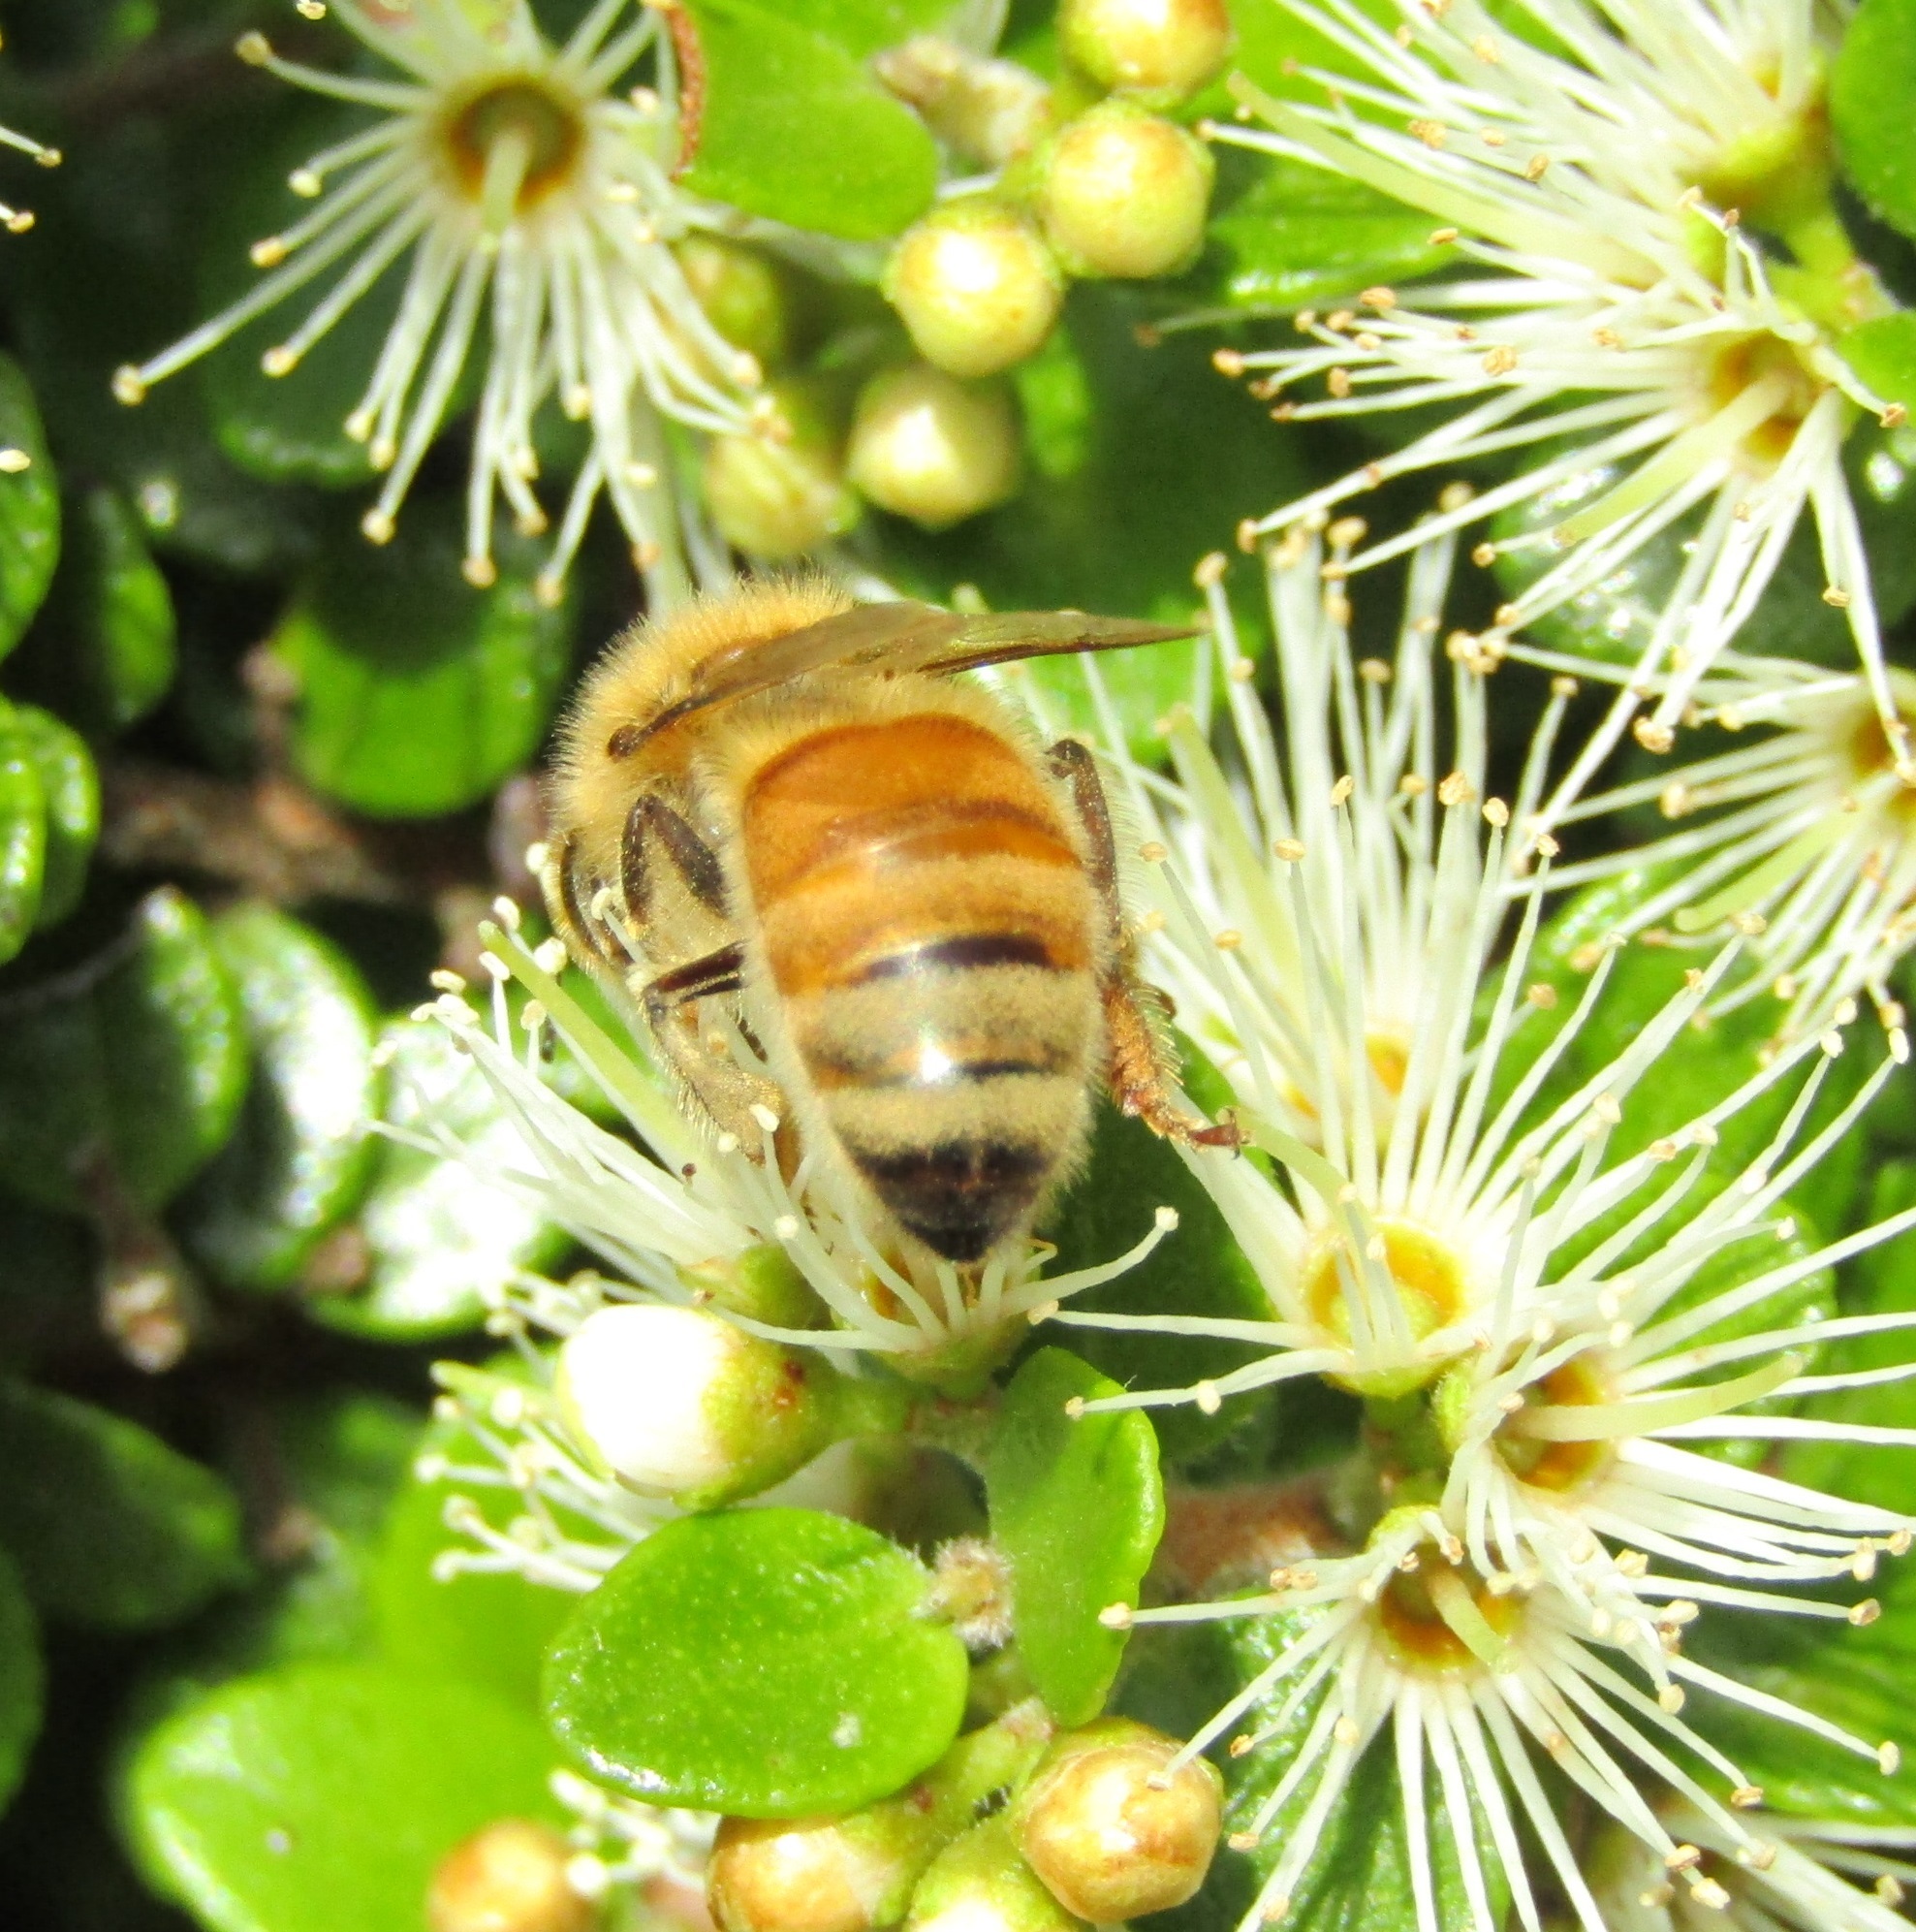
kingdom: Animalia
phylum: Arthropoda
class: Insecta
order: Hymenoptera
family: Apidae
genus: Apis
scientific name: Apis mellifera
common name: Honey bee
